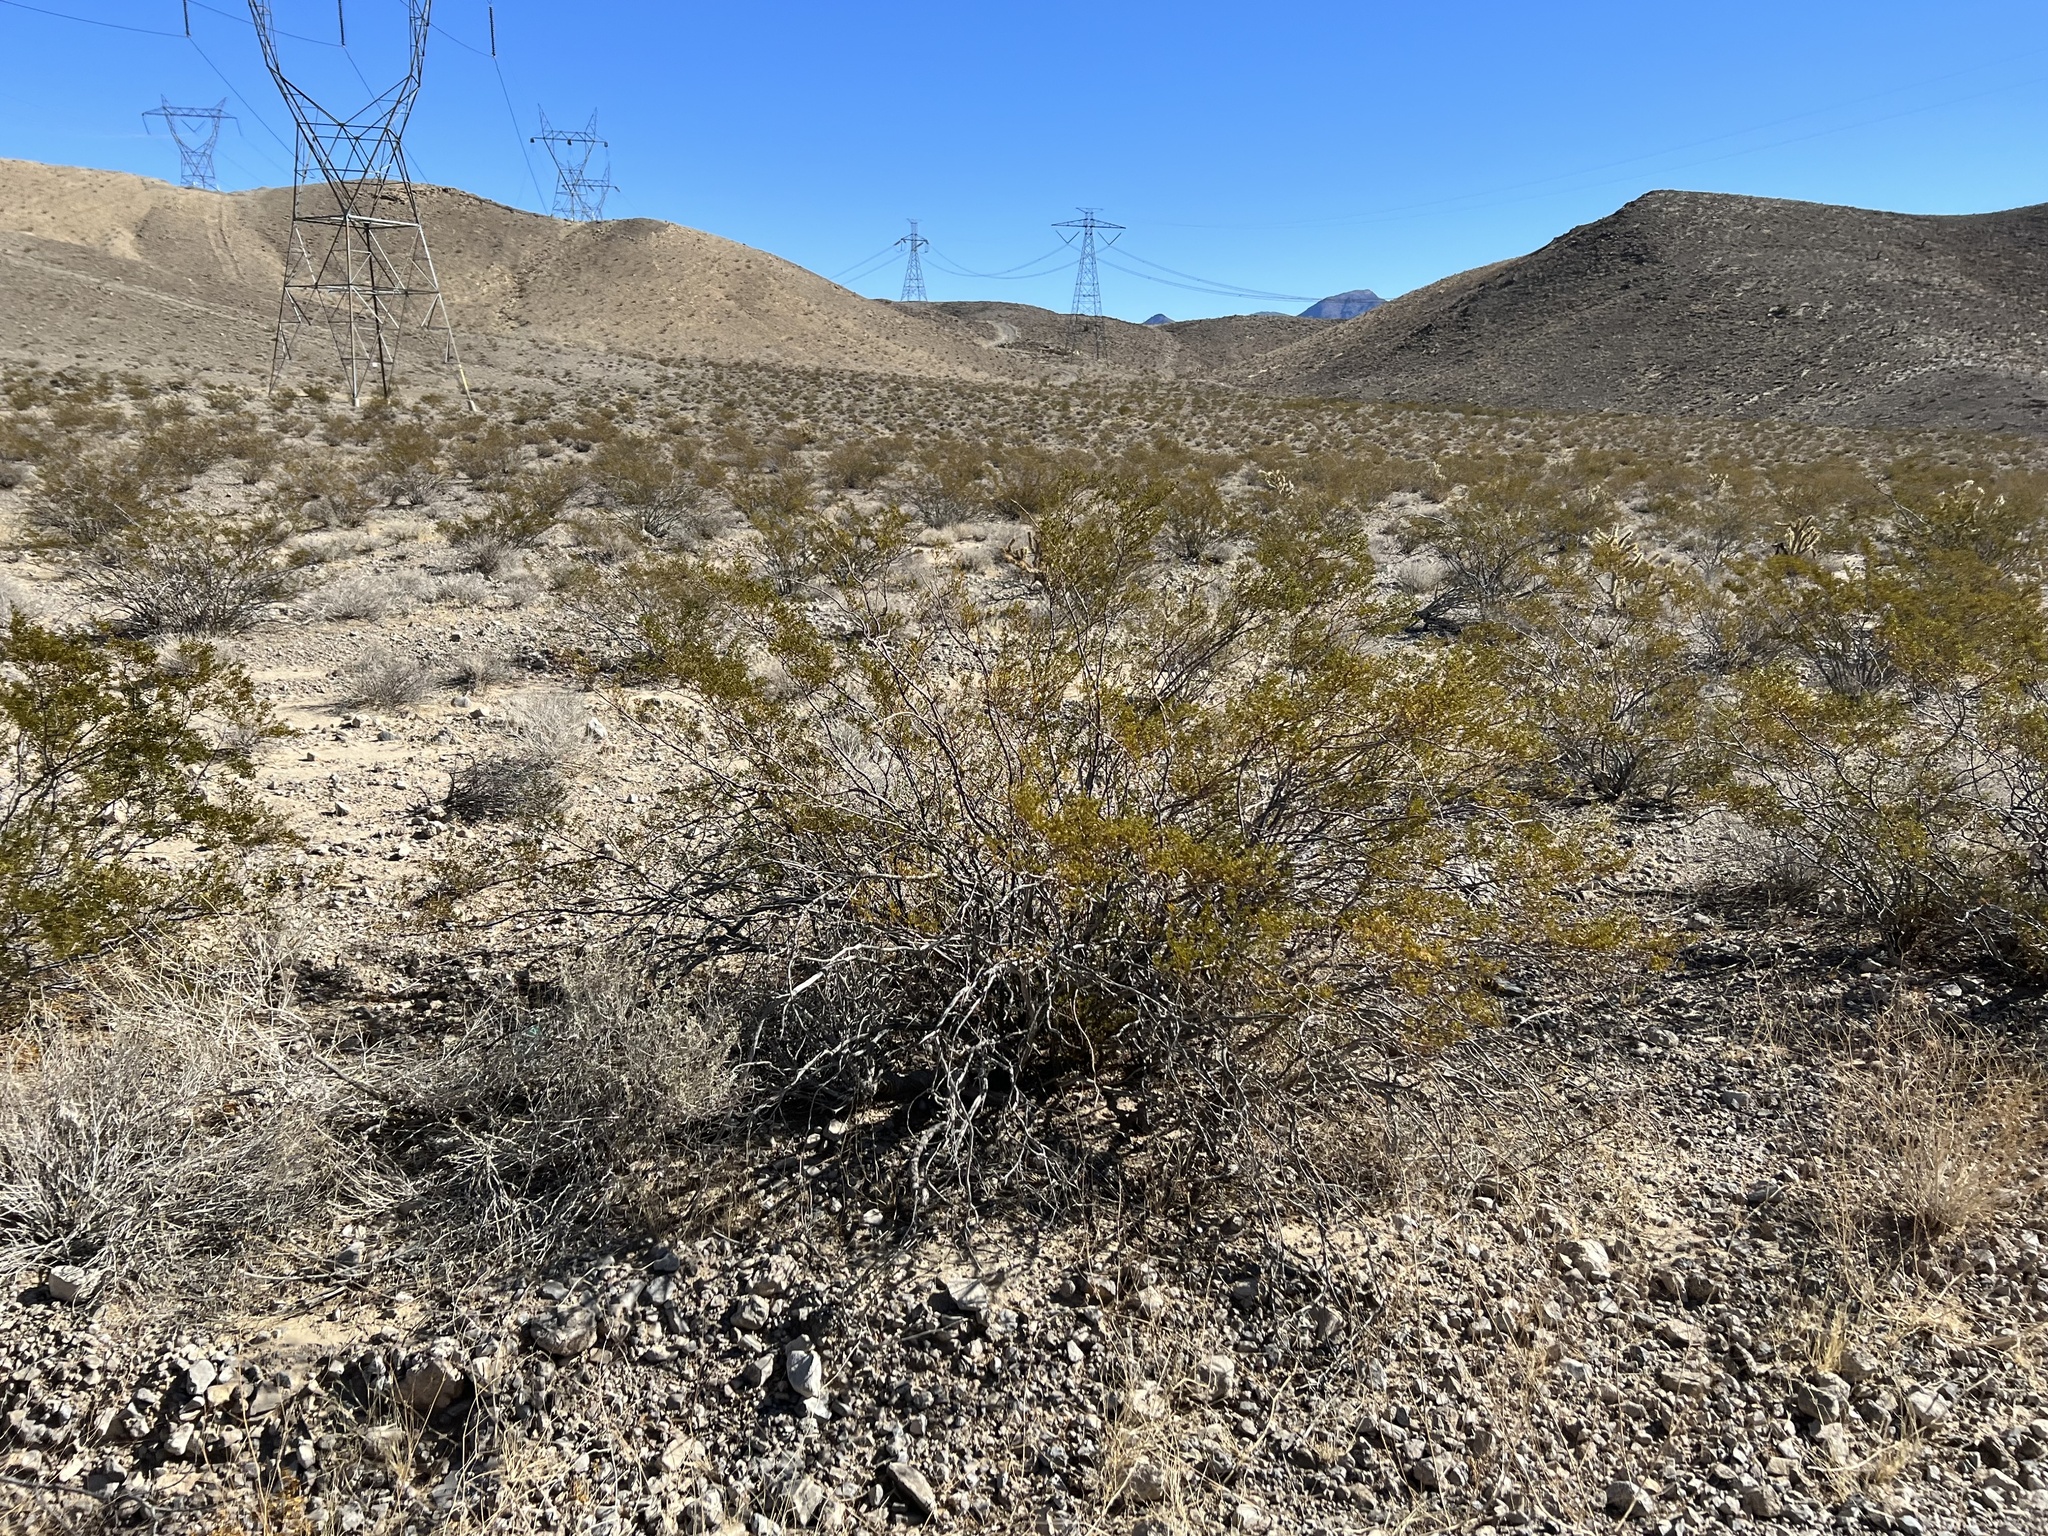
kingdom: Plantae
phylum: Tracheophyta
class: Magnoliopsida
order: Zygophyllales
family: Zygophyllaceae
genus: Larrea
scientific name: Larrea tridentata
